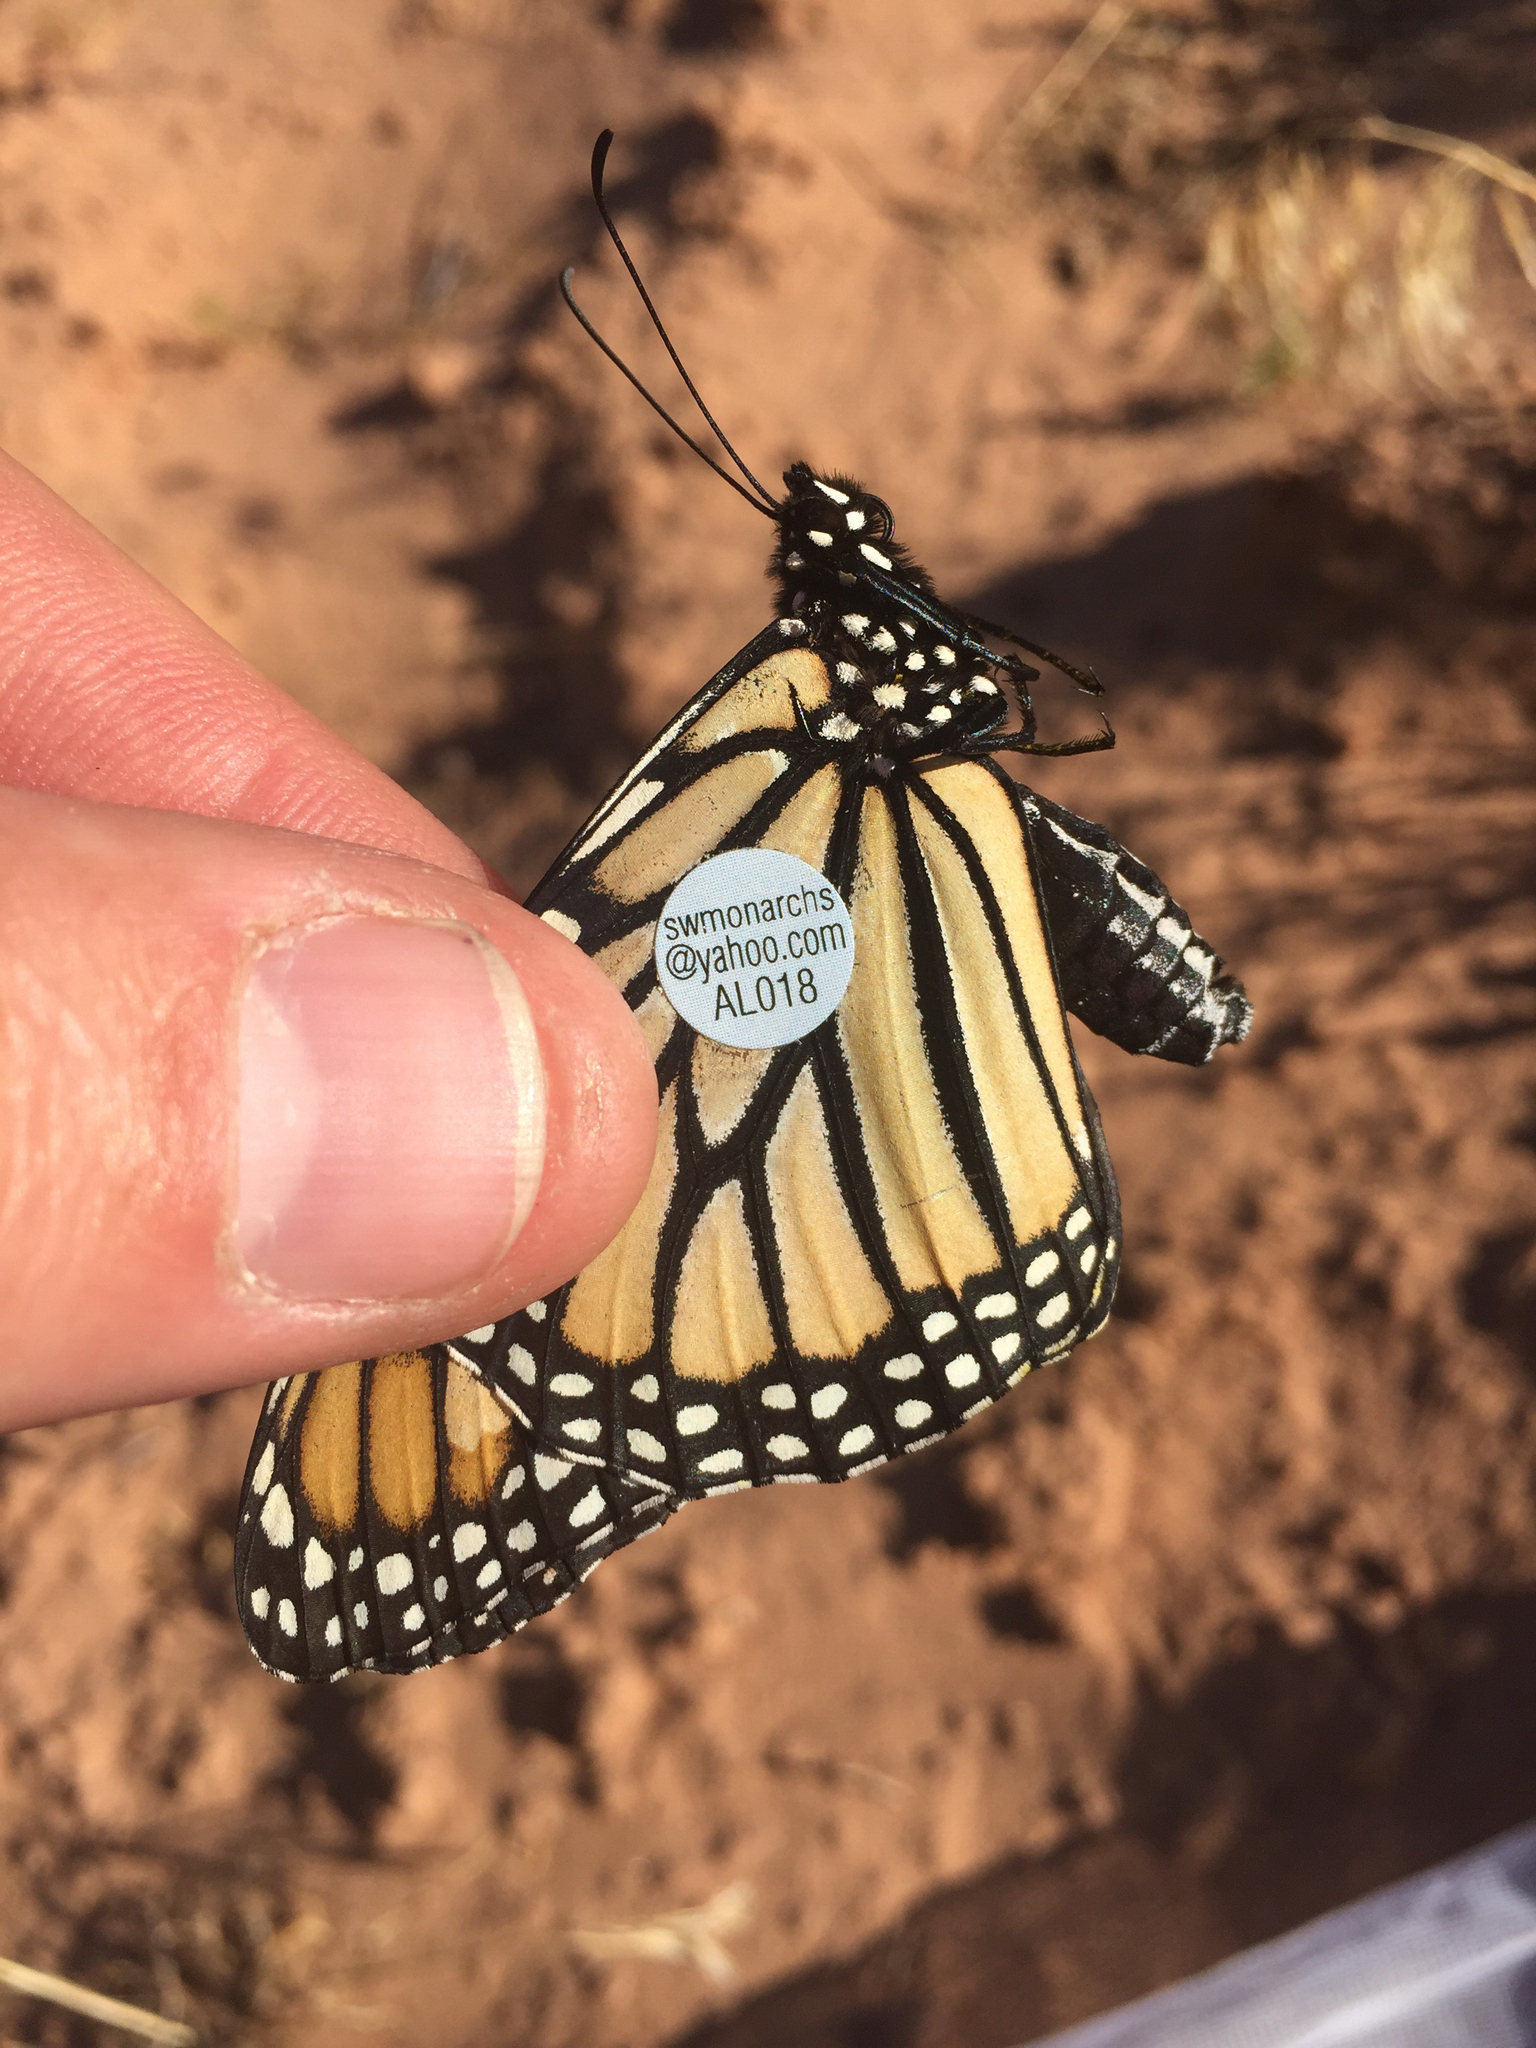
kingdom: Animalia
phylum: Arthropoda
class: Insecta
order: Lepidoptera
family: Nymphalidae
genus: Danaus
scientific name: Danaus plexippus
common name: Monarch
